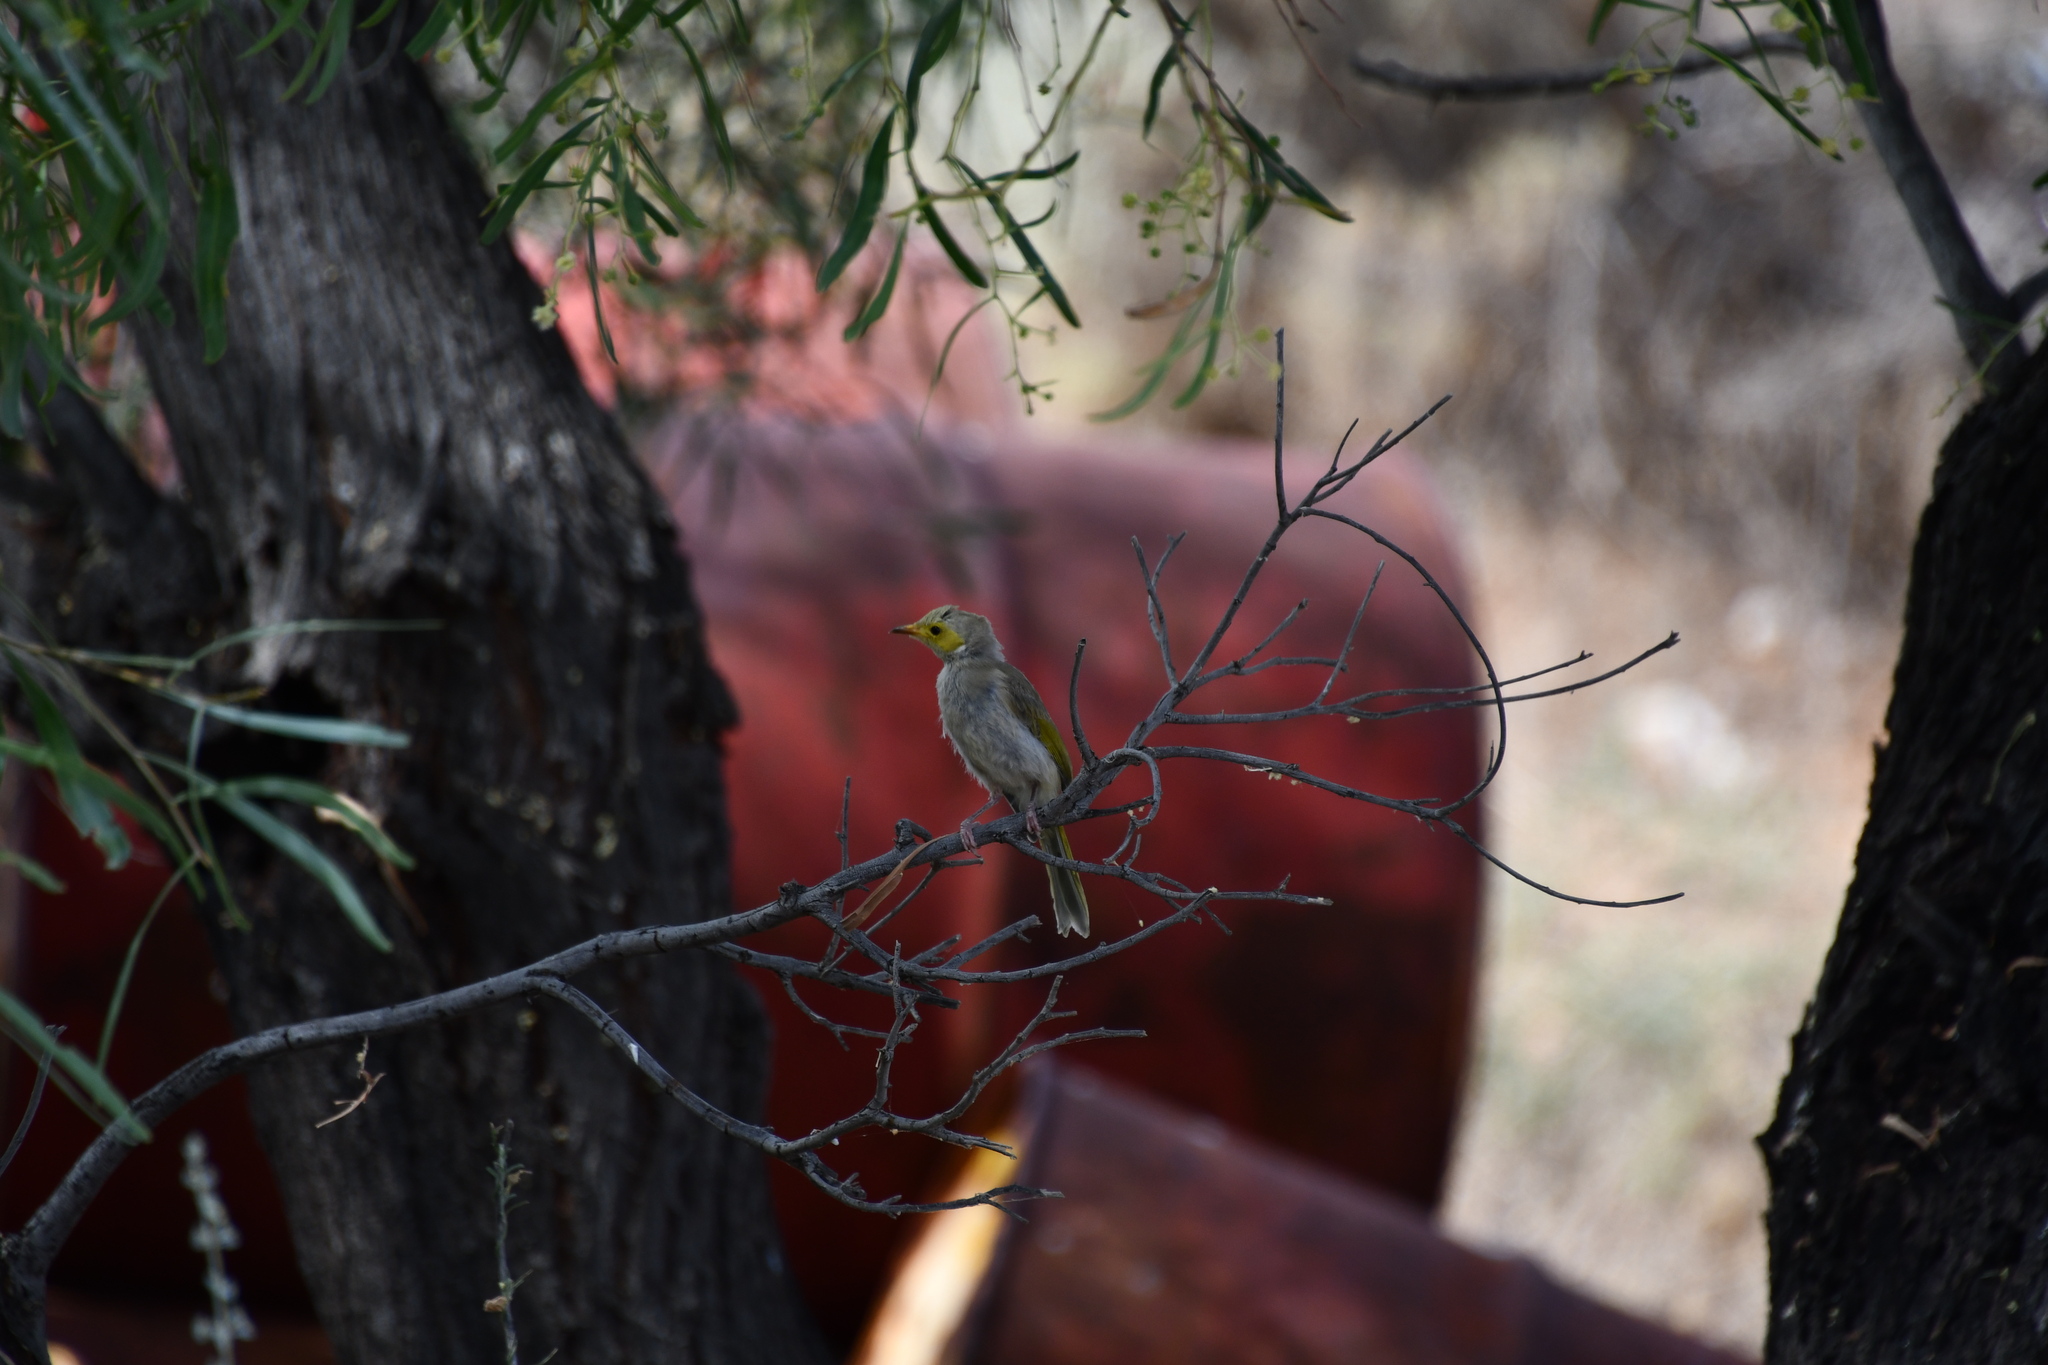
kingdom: Animalia
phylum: Chordata
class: Aves
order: Passeriformes
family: Meliphagidae
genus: Ptilotula
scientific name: Ptilotula penicillata
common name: White-plumed honeyeater
